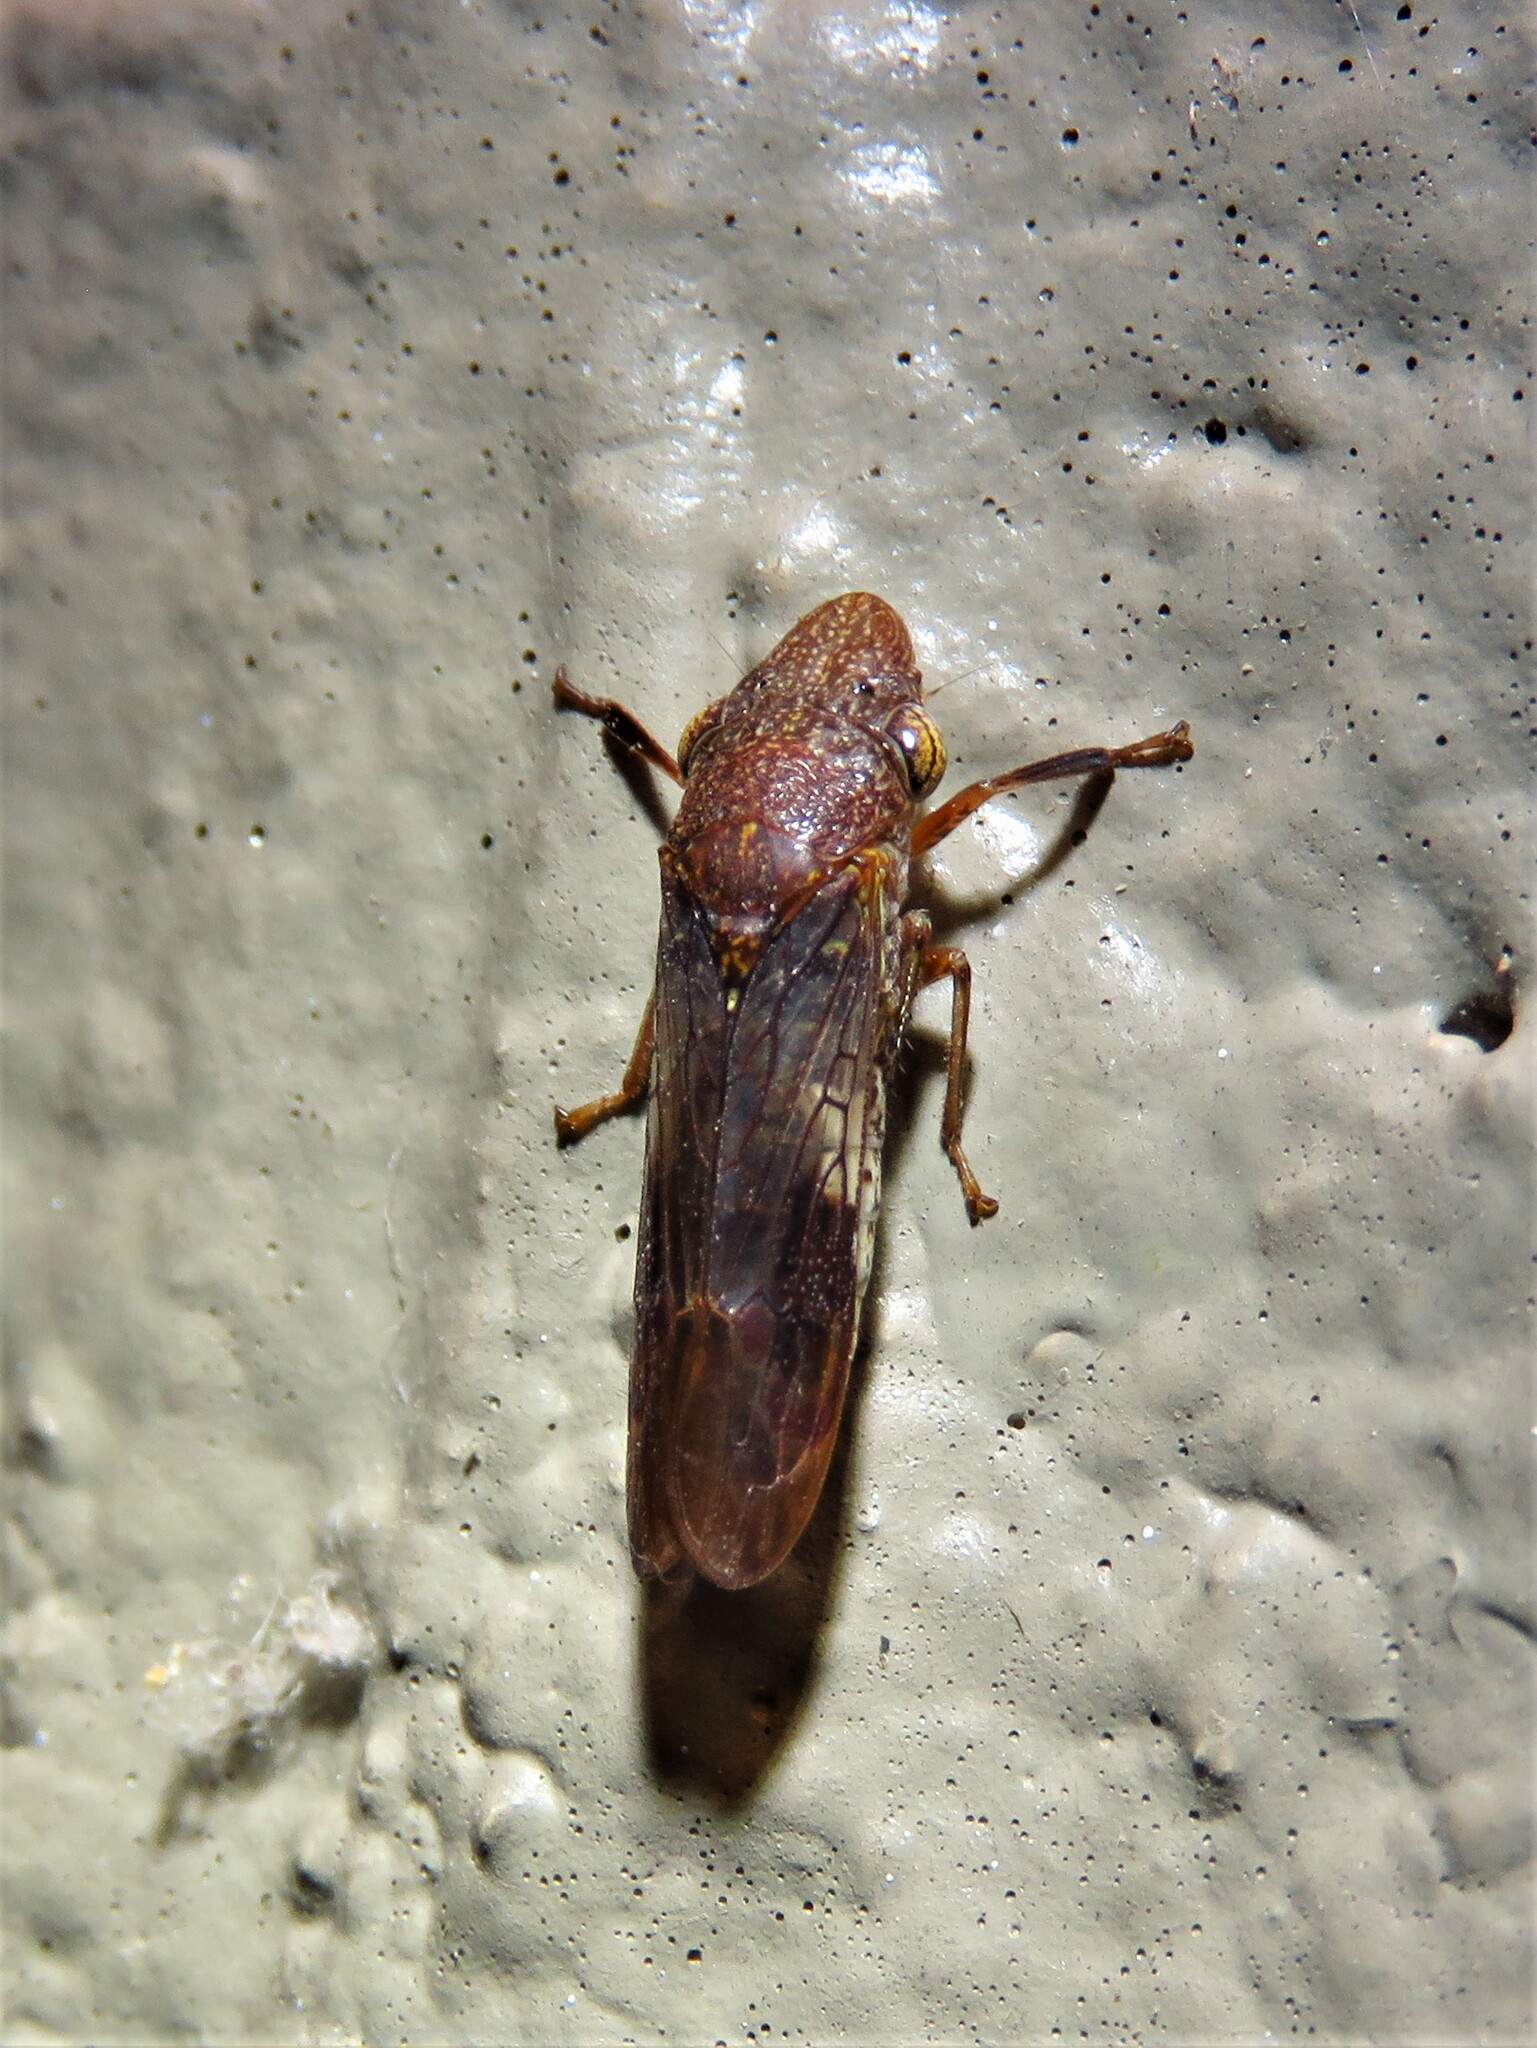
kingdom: Animalia
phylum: Arthropoda
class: Insecta
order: Hemiptera
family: Cicadellidae
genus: Homalodisca
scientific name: Homalodisca vitripennis
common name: Glassy-winged sharpshooter
